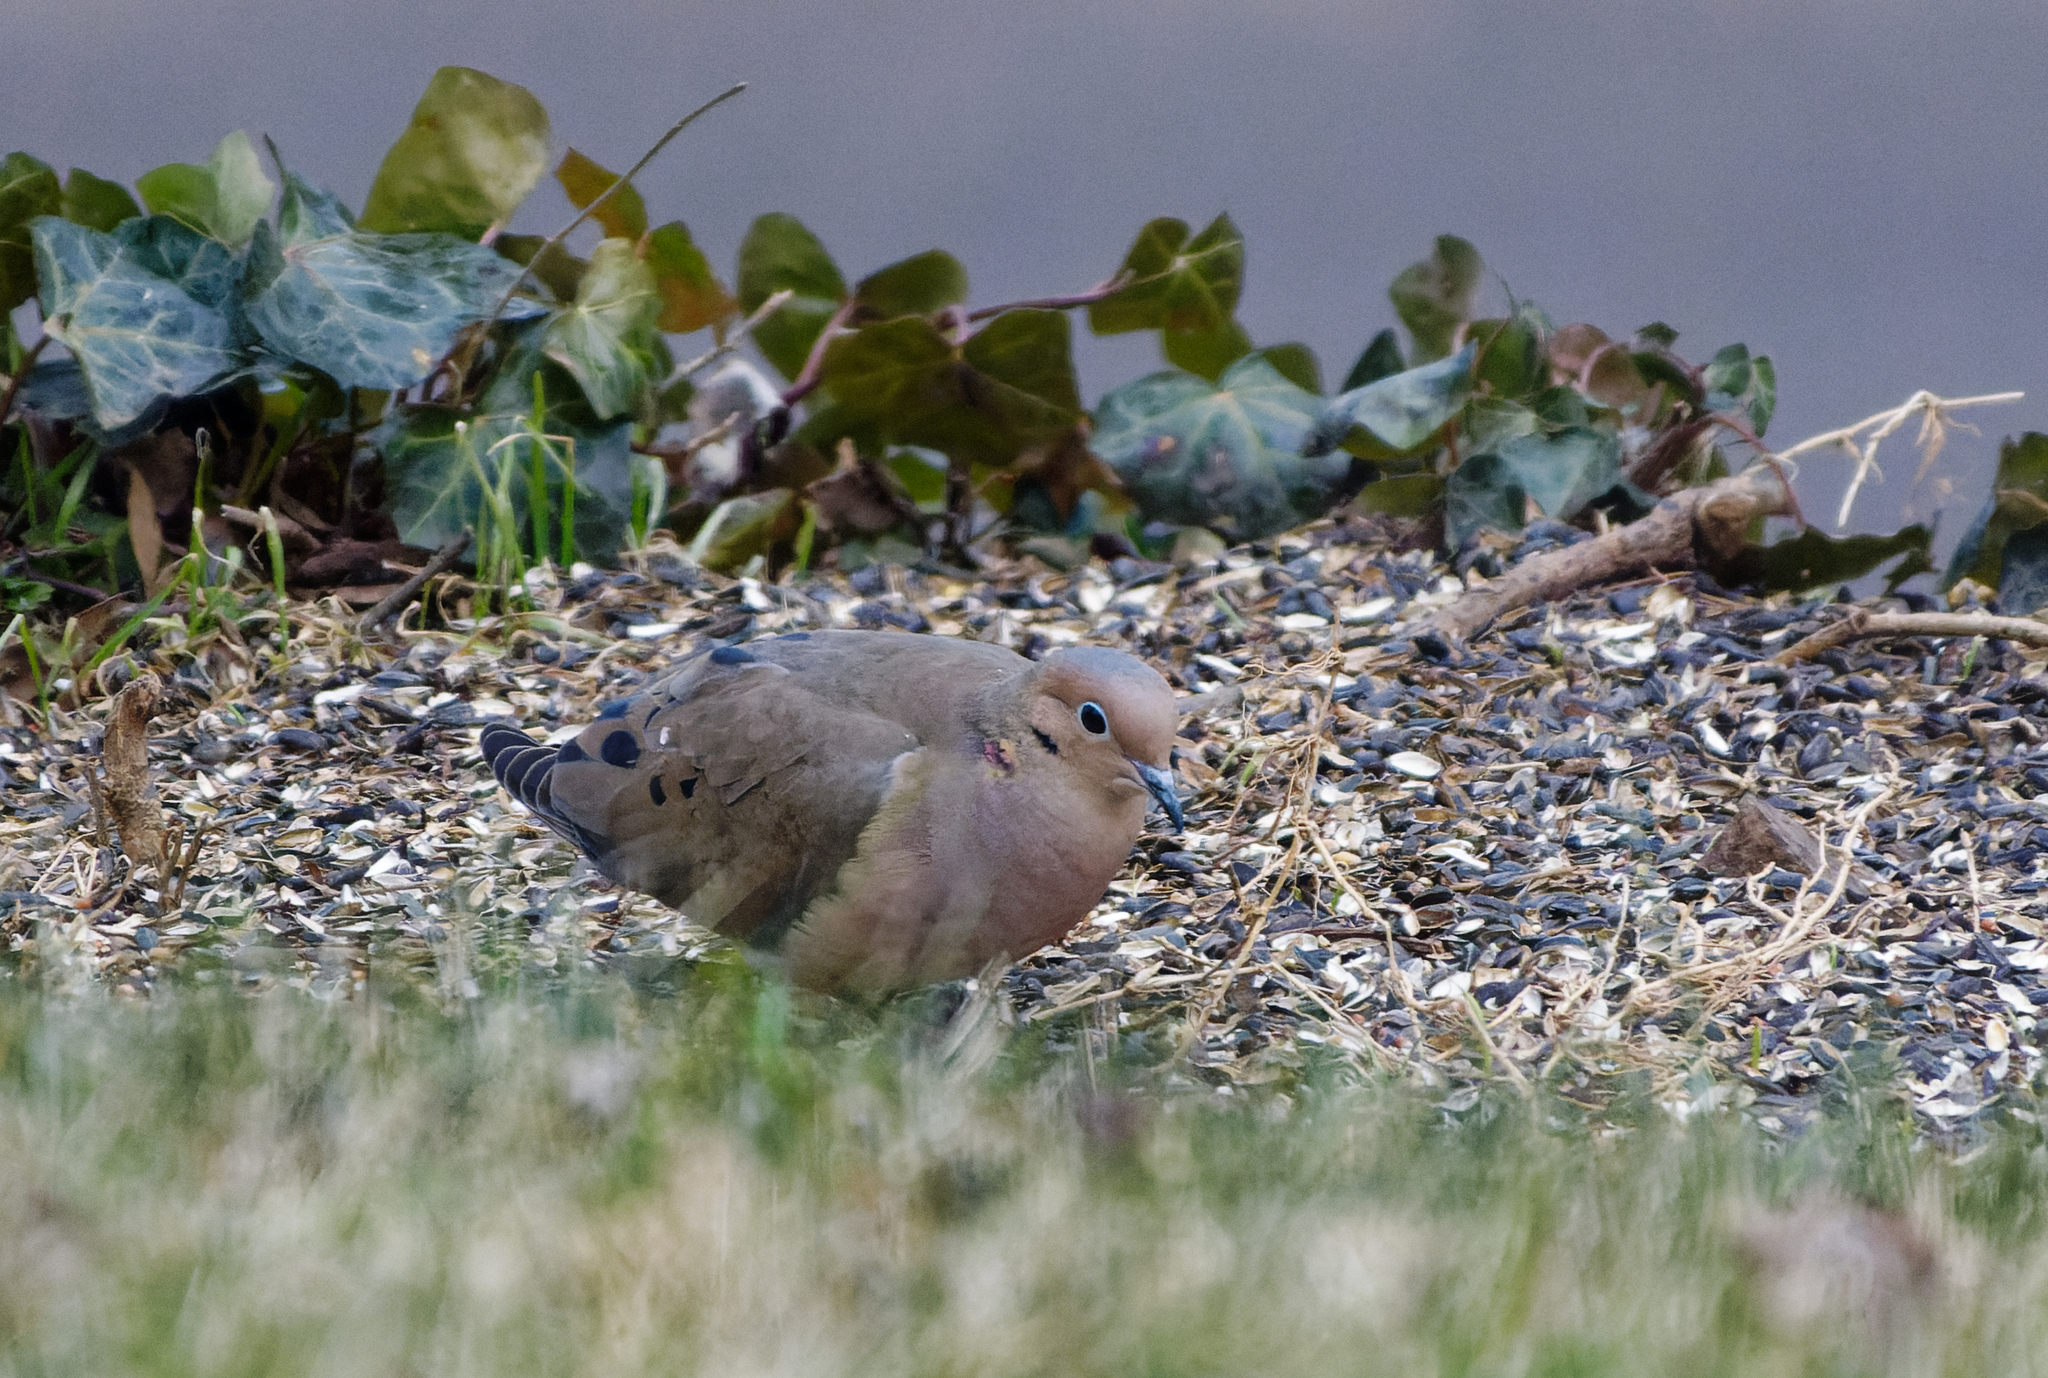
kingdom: Animalia
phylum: Chordata
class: Aves
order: Columbiformes
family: Columbidae
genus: Zenaida
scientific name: Zenaida macroura
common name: Mourning dove
